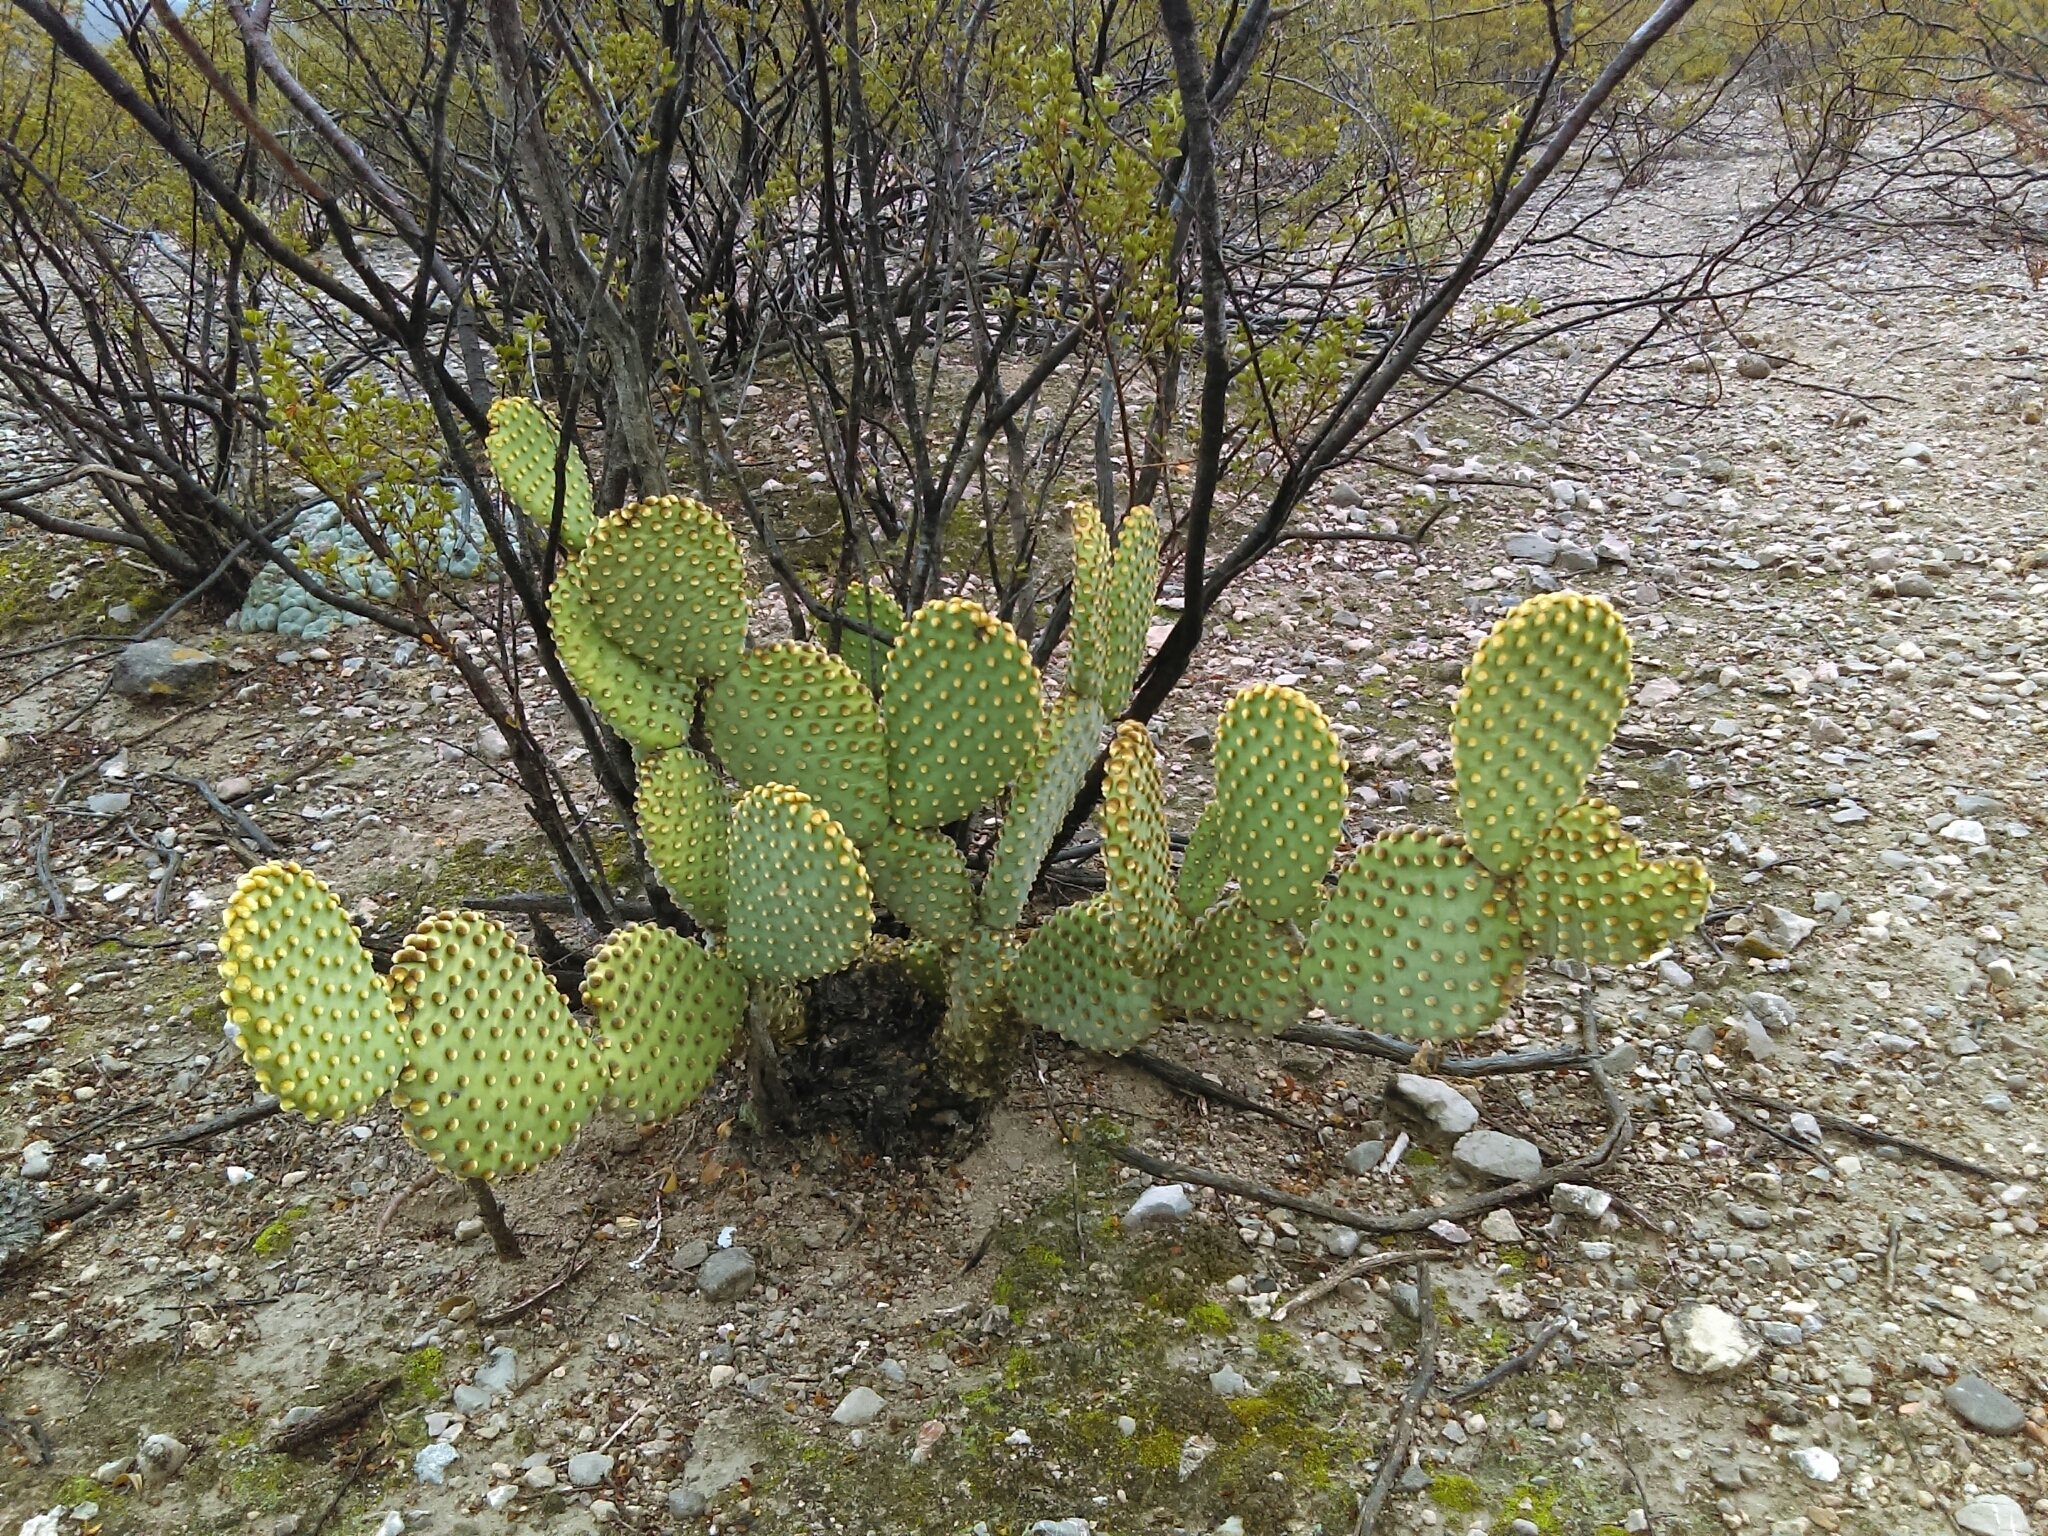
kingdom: Plantae
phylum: Tracheophyta
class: Magnoliopsida
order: Caryophyllales
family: Cactaceae
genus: Opuntia
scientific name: Opuntia microdasys
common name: Angel's-wings
